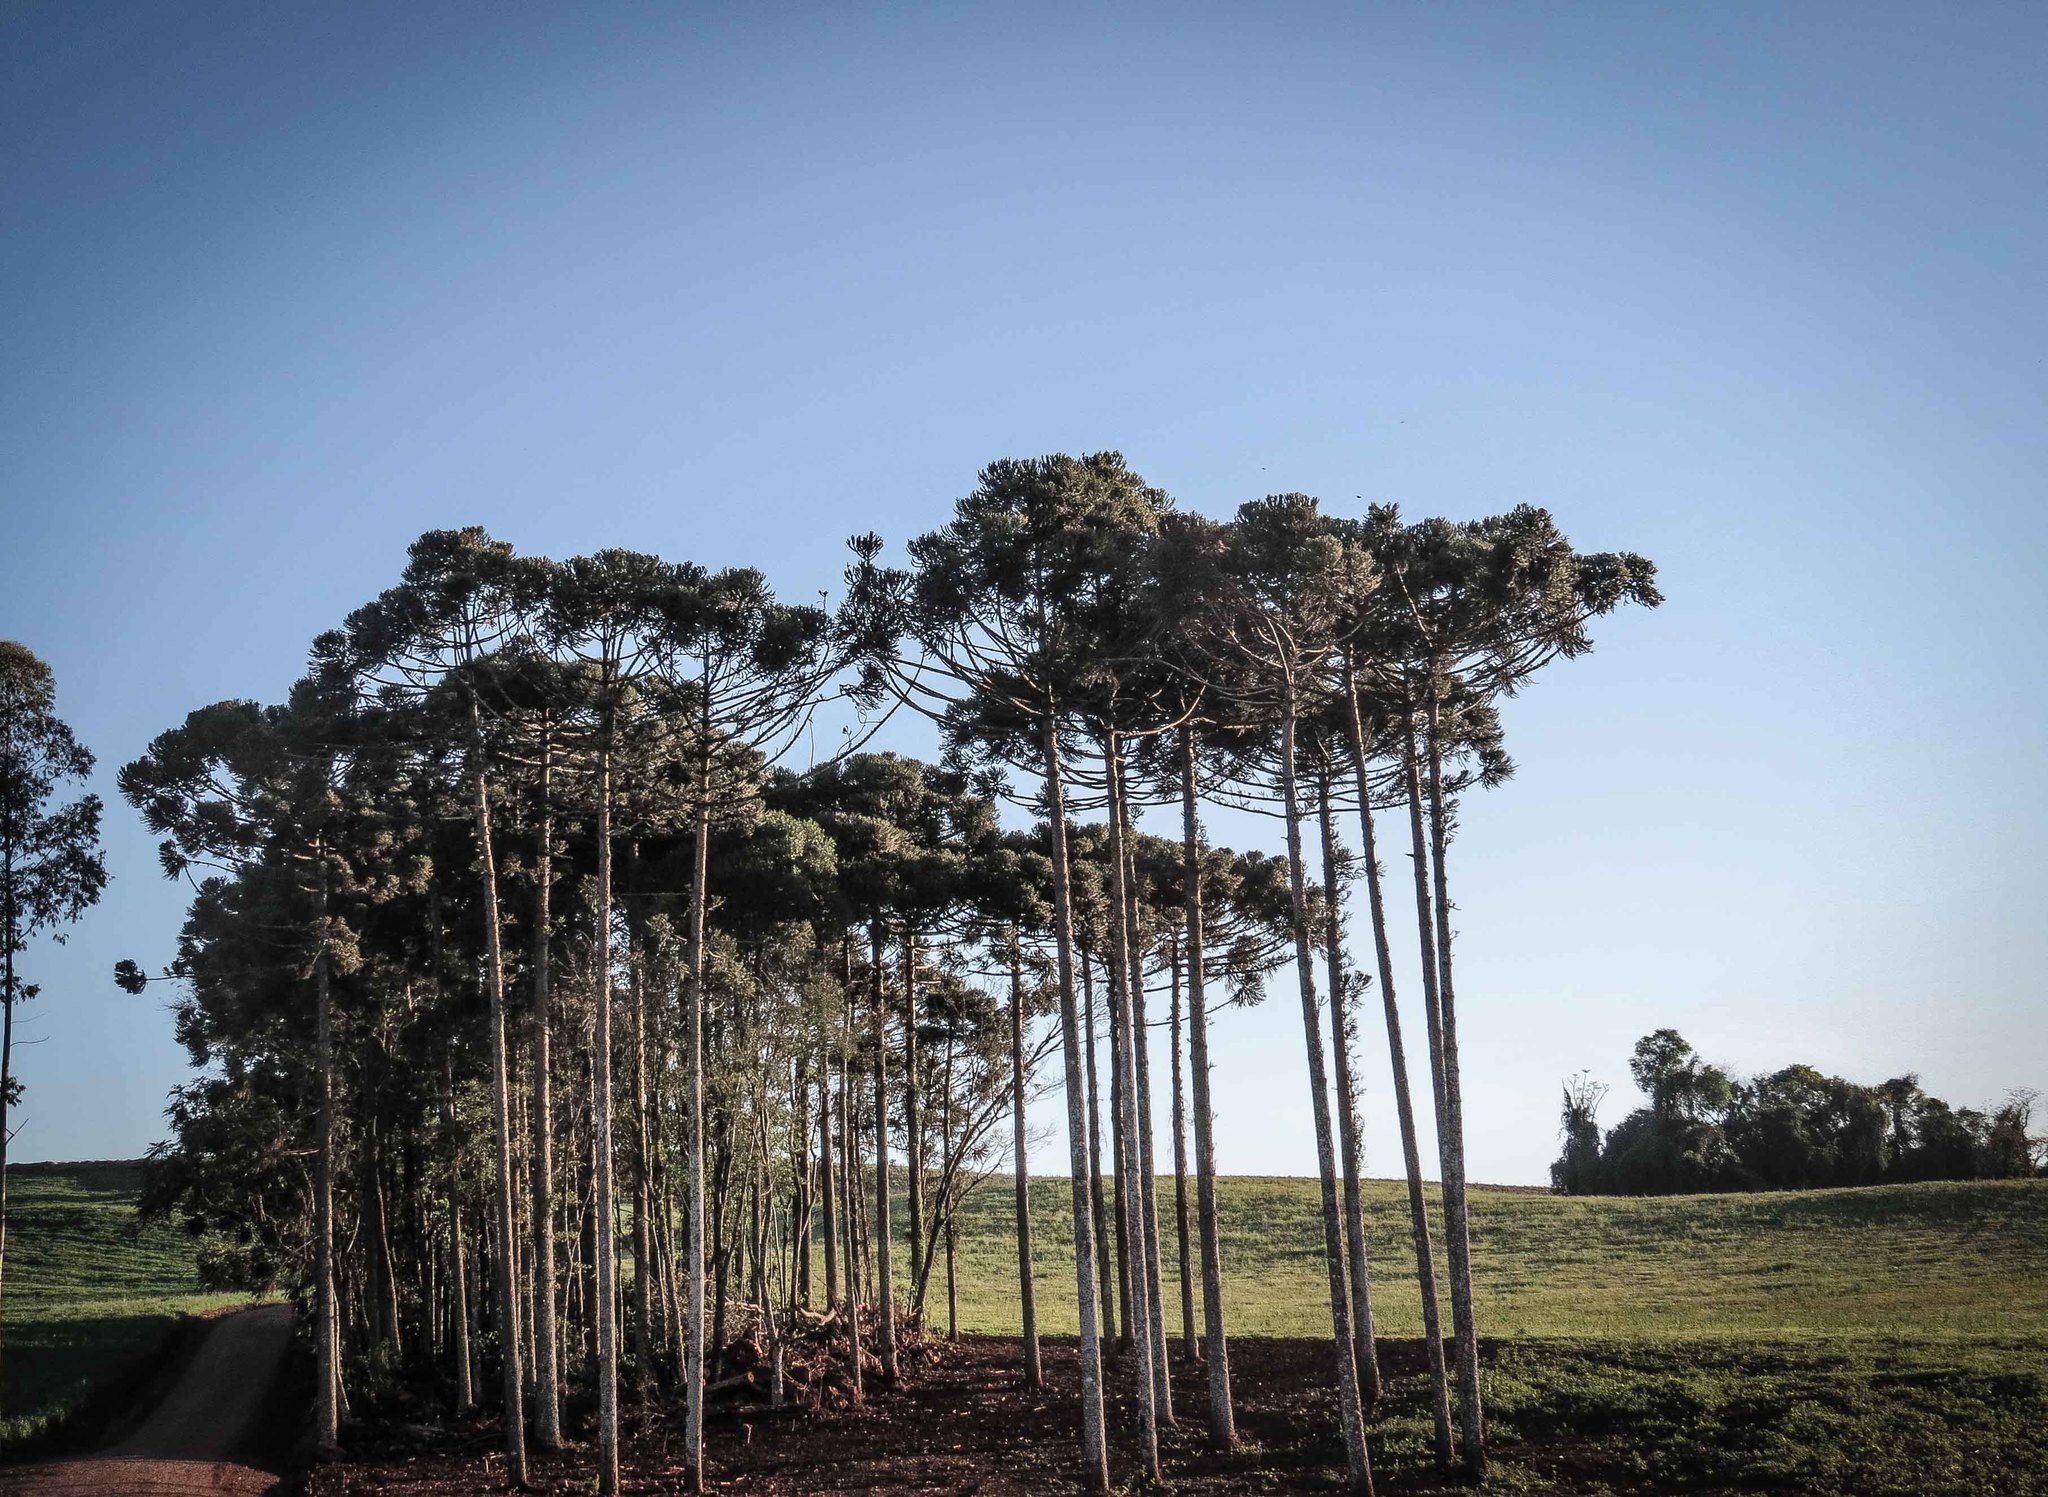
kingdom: Plantae
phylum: Tracheophyta
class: Pinopsida
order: Pinales
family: Araucariaceae
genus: Araucaria
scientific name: Araucaria angustifolia
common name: Candelabra tree
